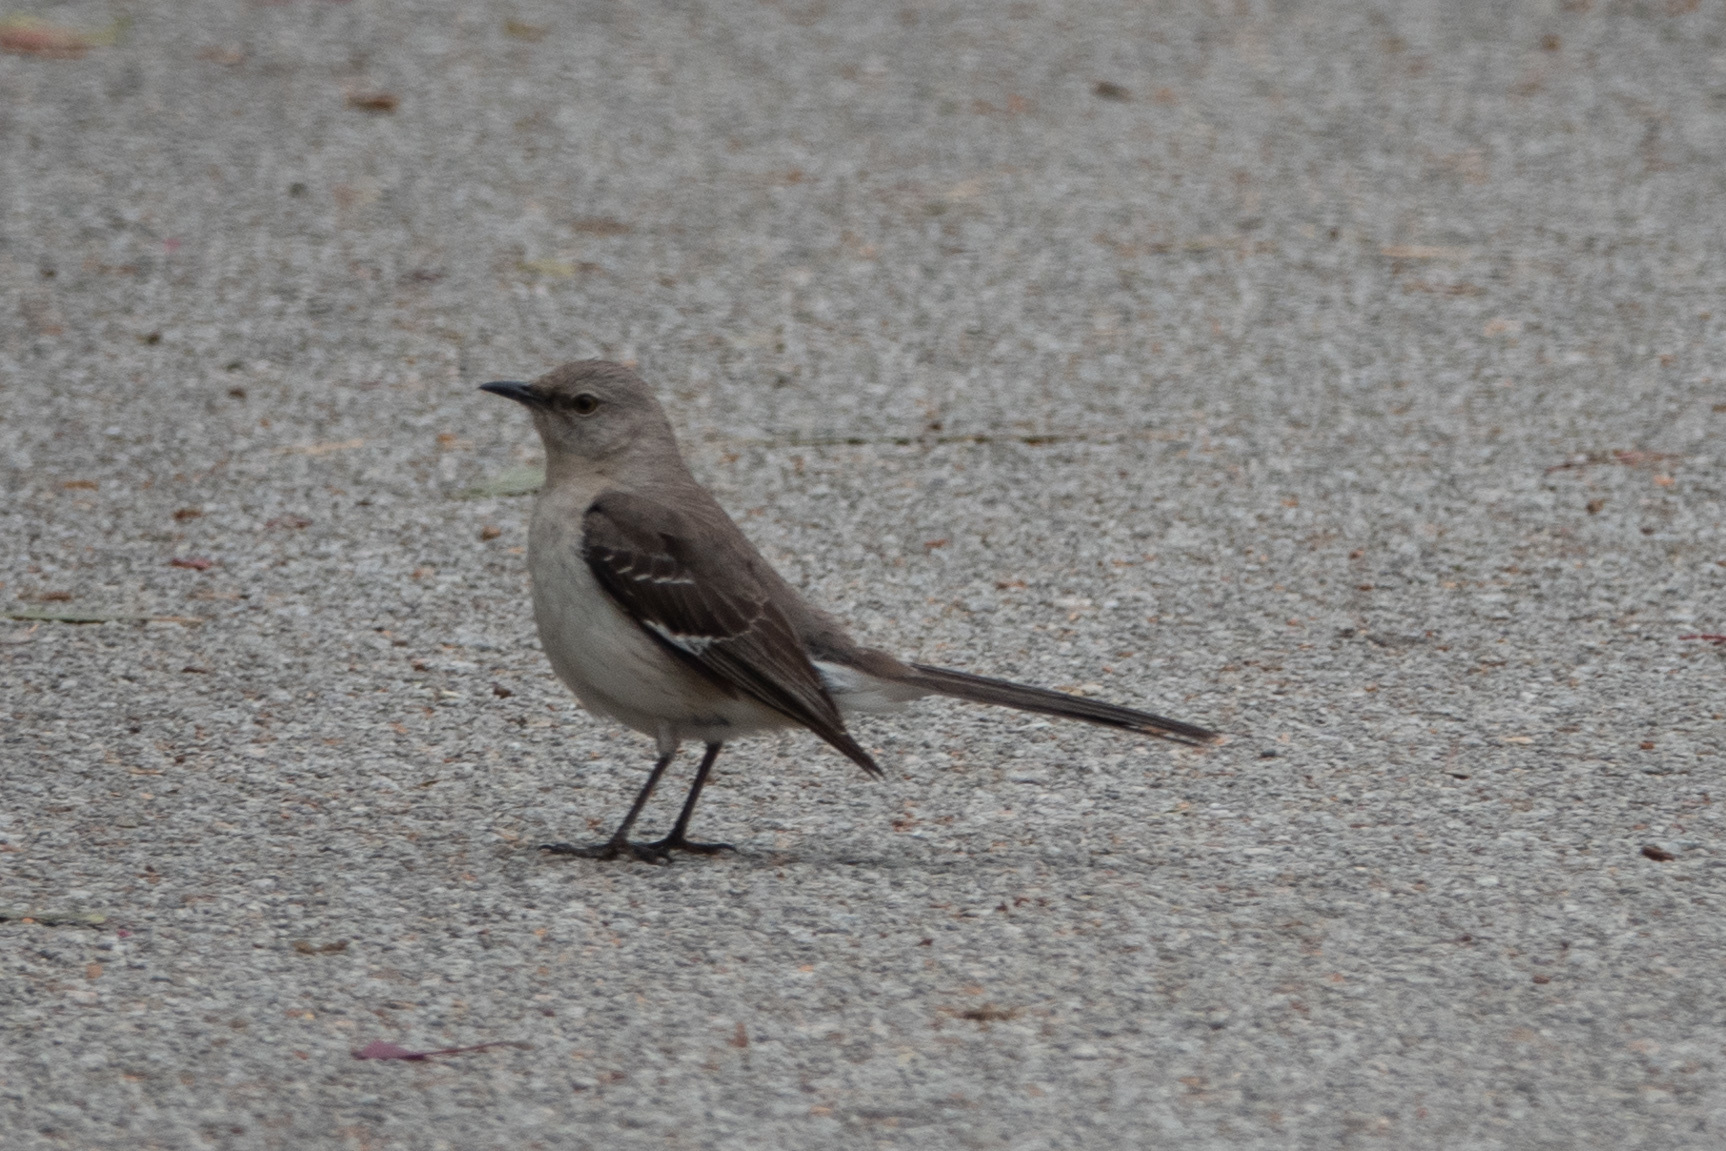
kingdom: Animalia
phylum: Chordata
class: Aves
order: Passeriformes
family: Mimidae
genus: Mimus
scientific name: Mimus polyglottos
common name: Northern mockingbird
